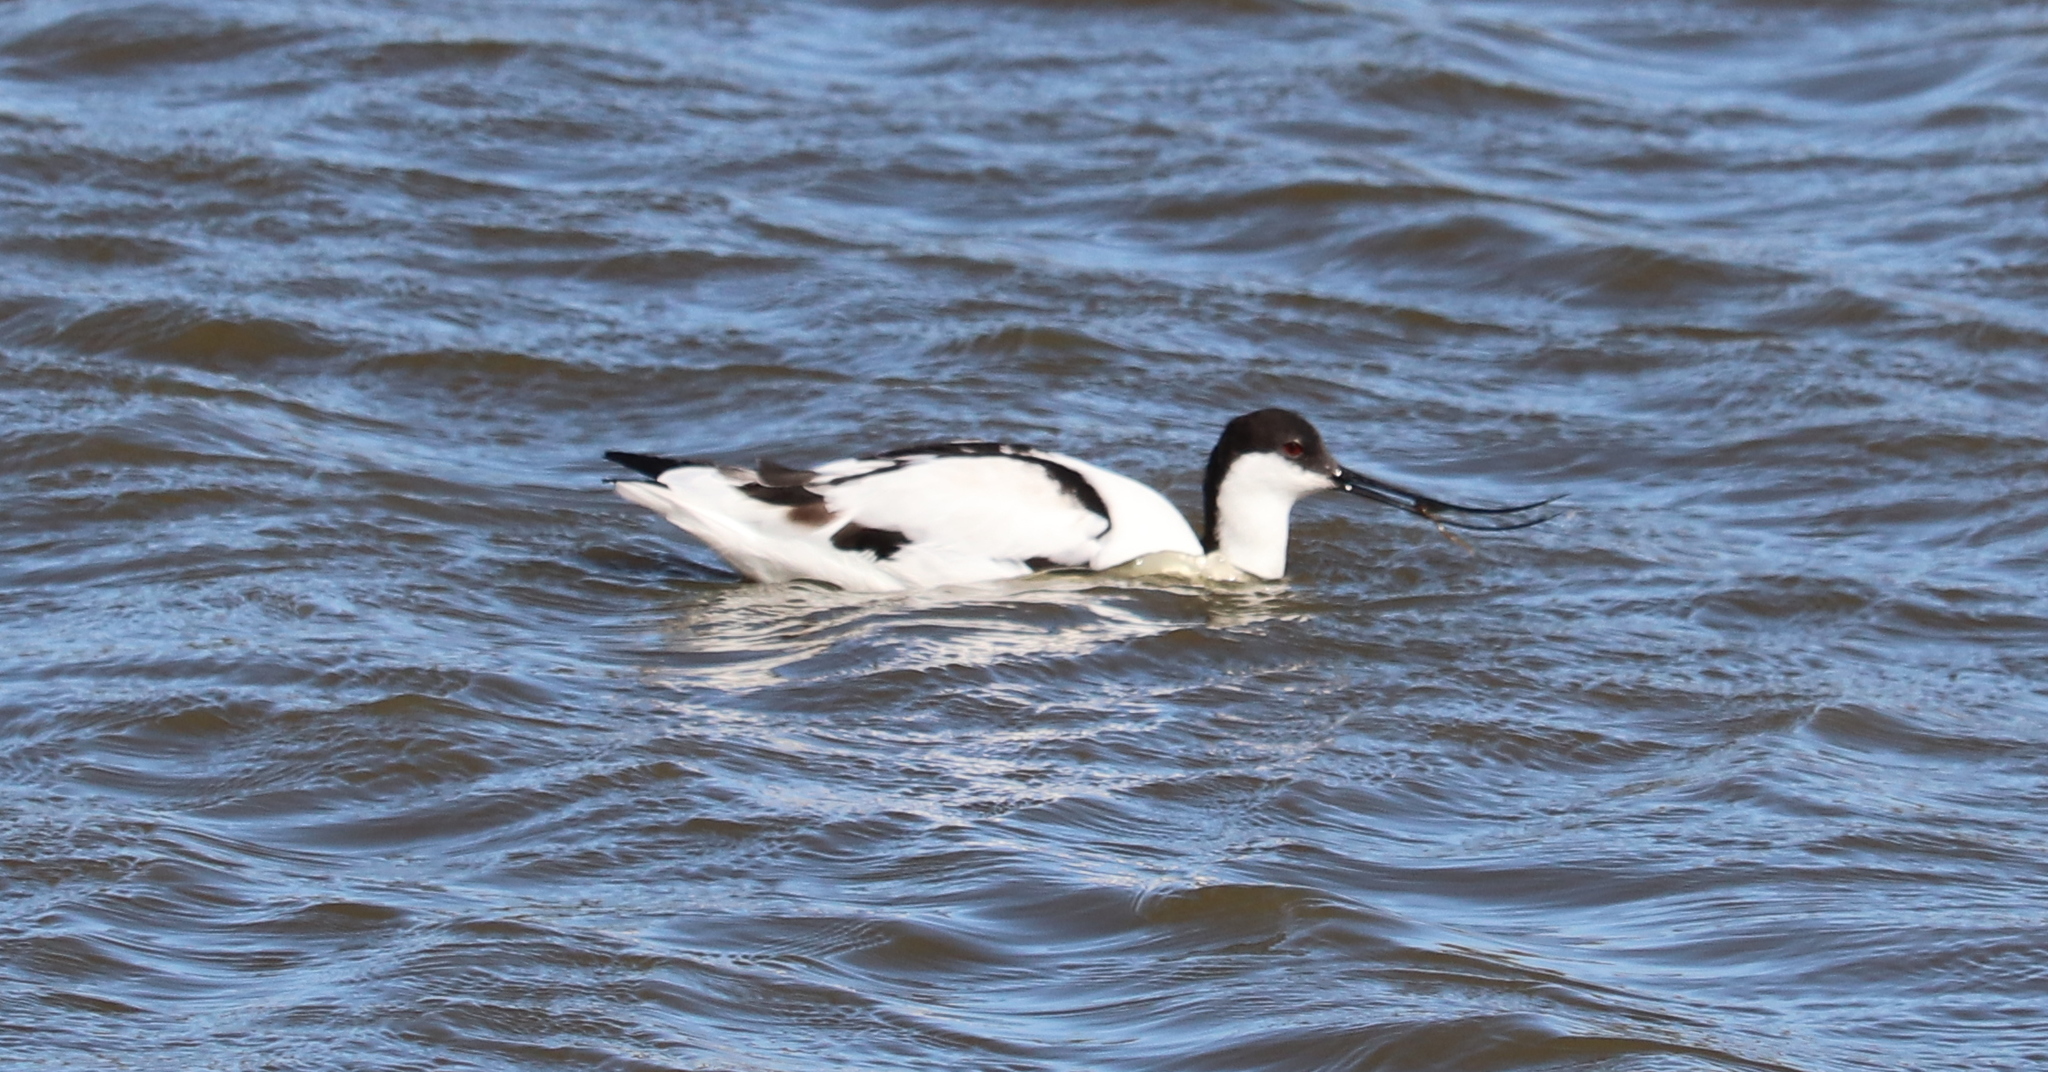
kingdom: Animalia
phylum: Chordata
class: Aves
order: Charadriiformes
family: Recurvirostridae
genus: Recurvirostra
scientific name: Recurvirostra avosetta
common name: Pied avocet
